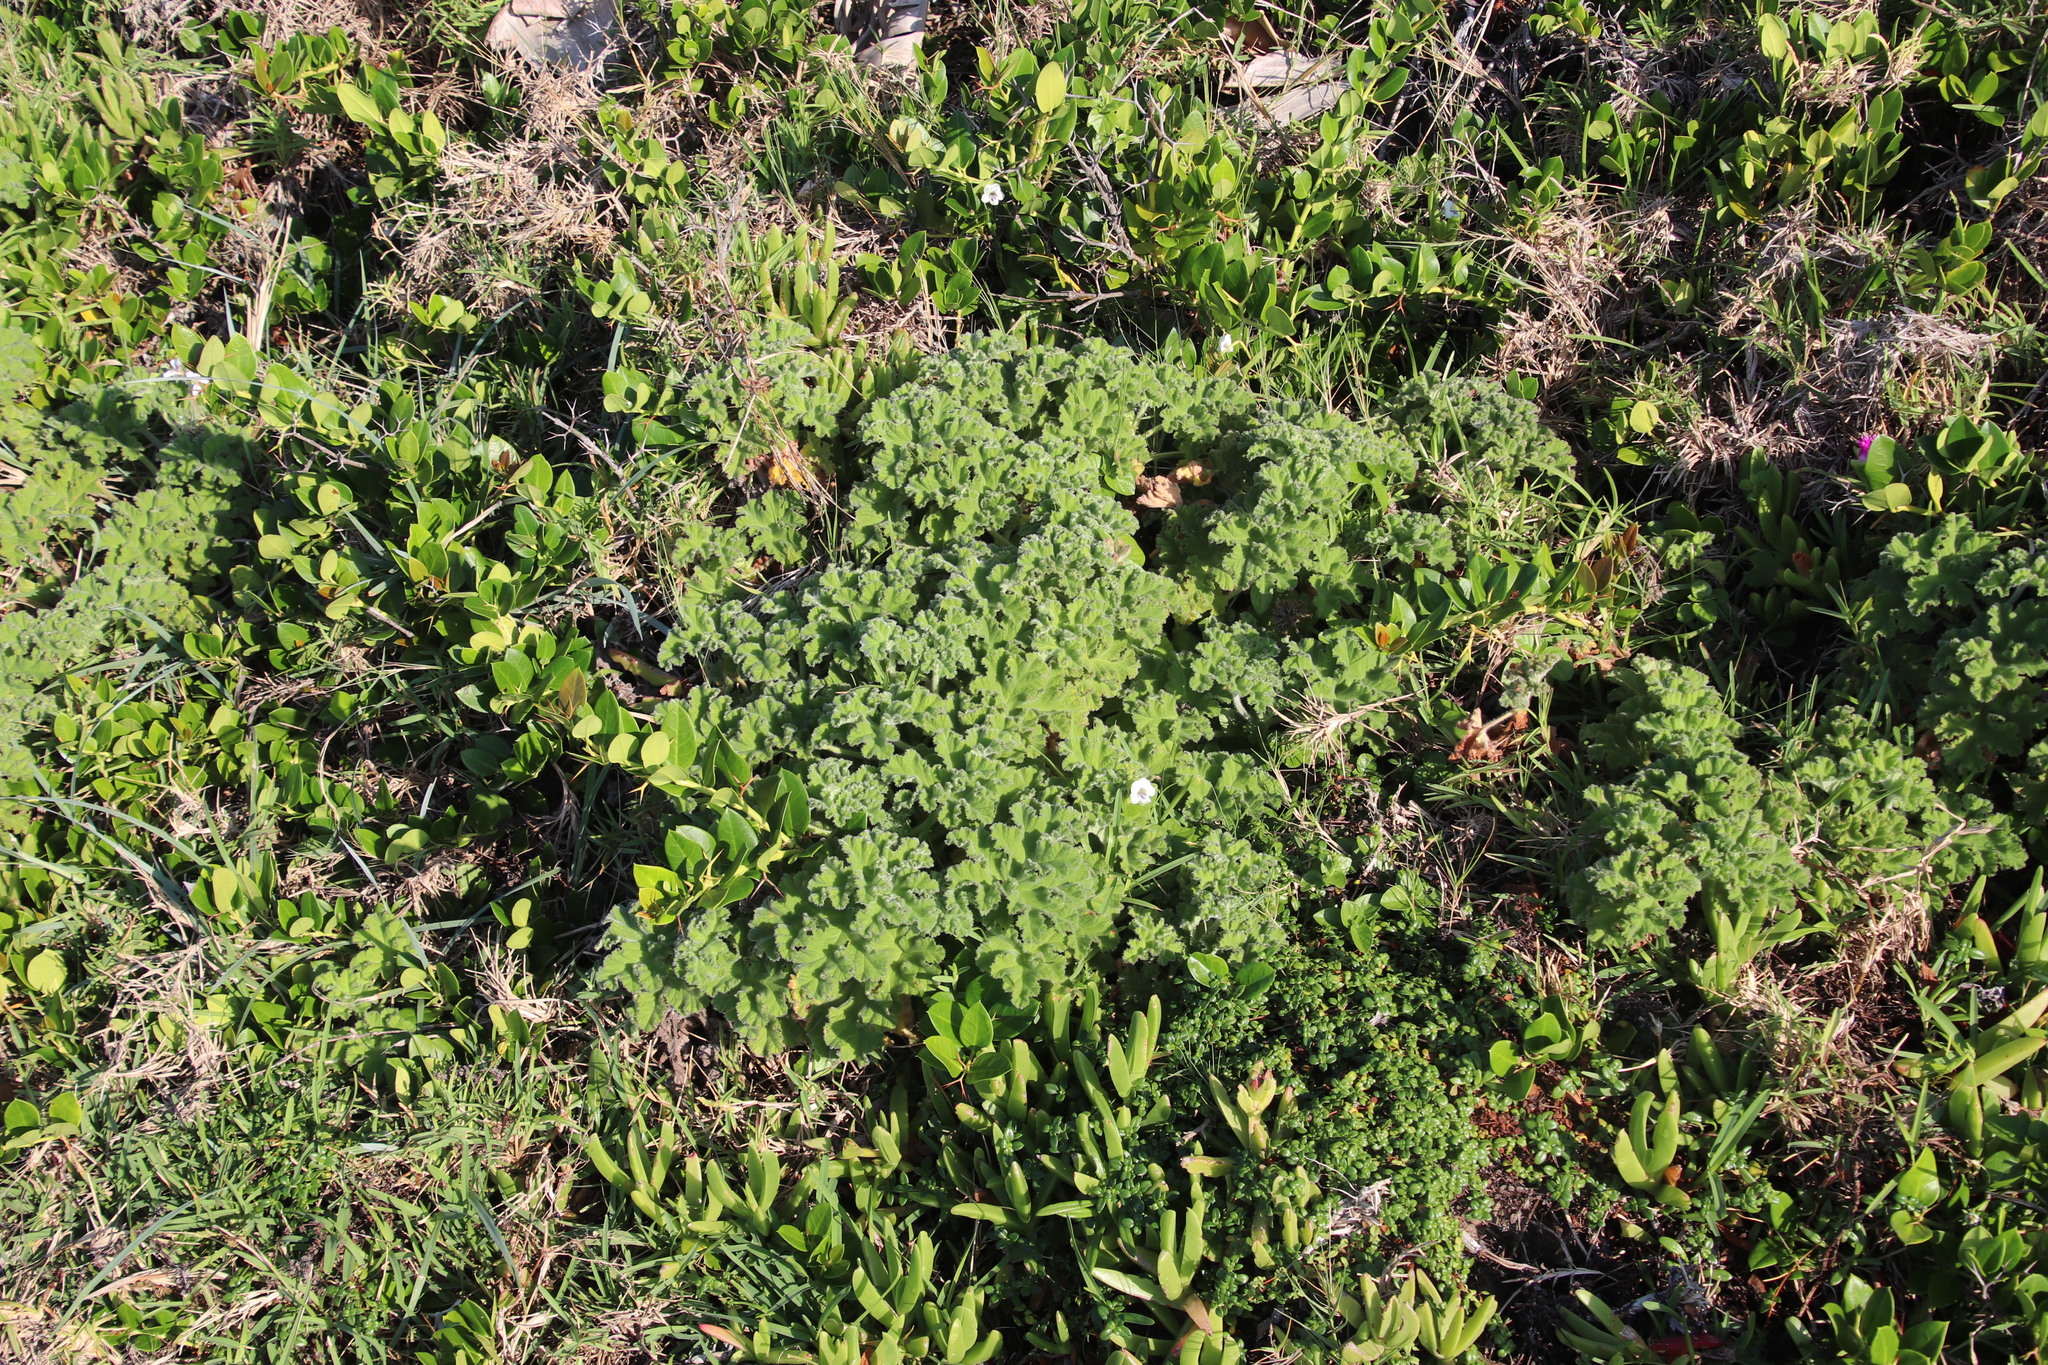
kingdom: Plantae
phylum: Tracheophyta
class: Magnoliopsida
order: Geraniales
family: Geraniaceae
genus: Pelargonium
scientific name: Pelargonium capitatum
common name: Rose scented geranium
